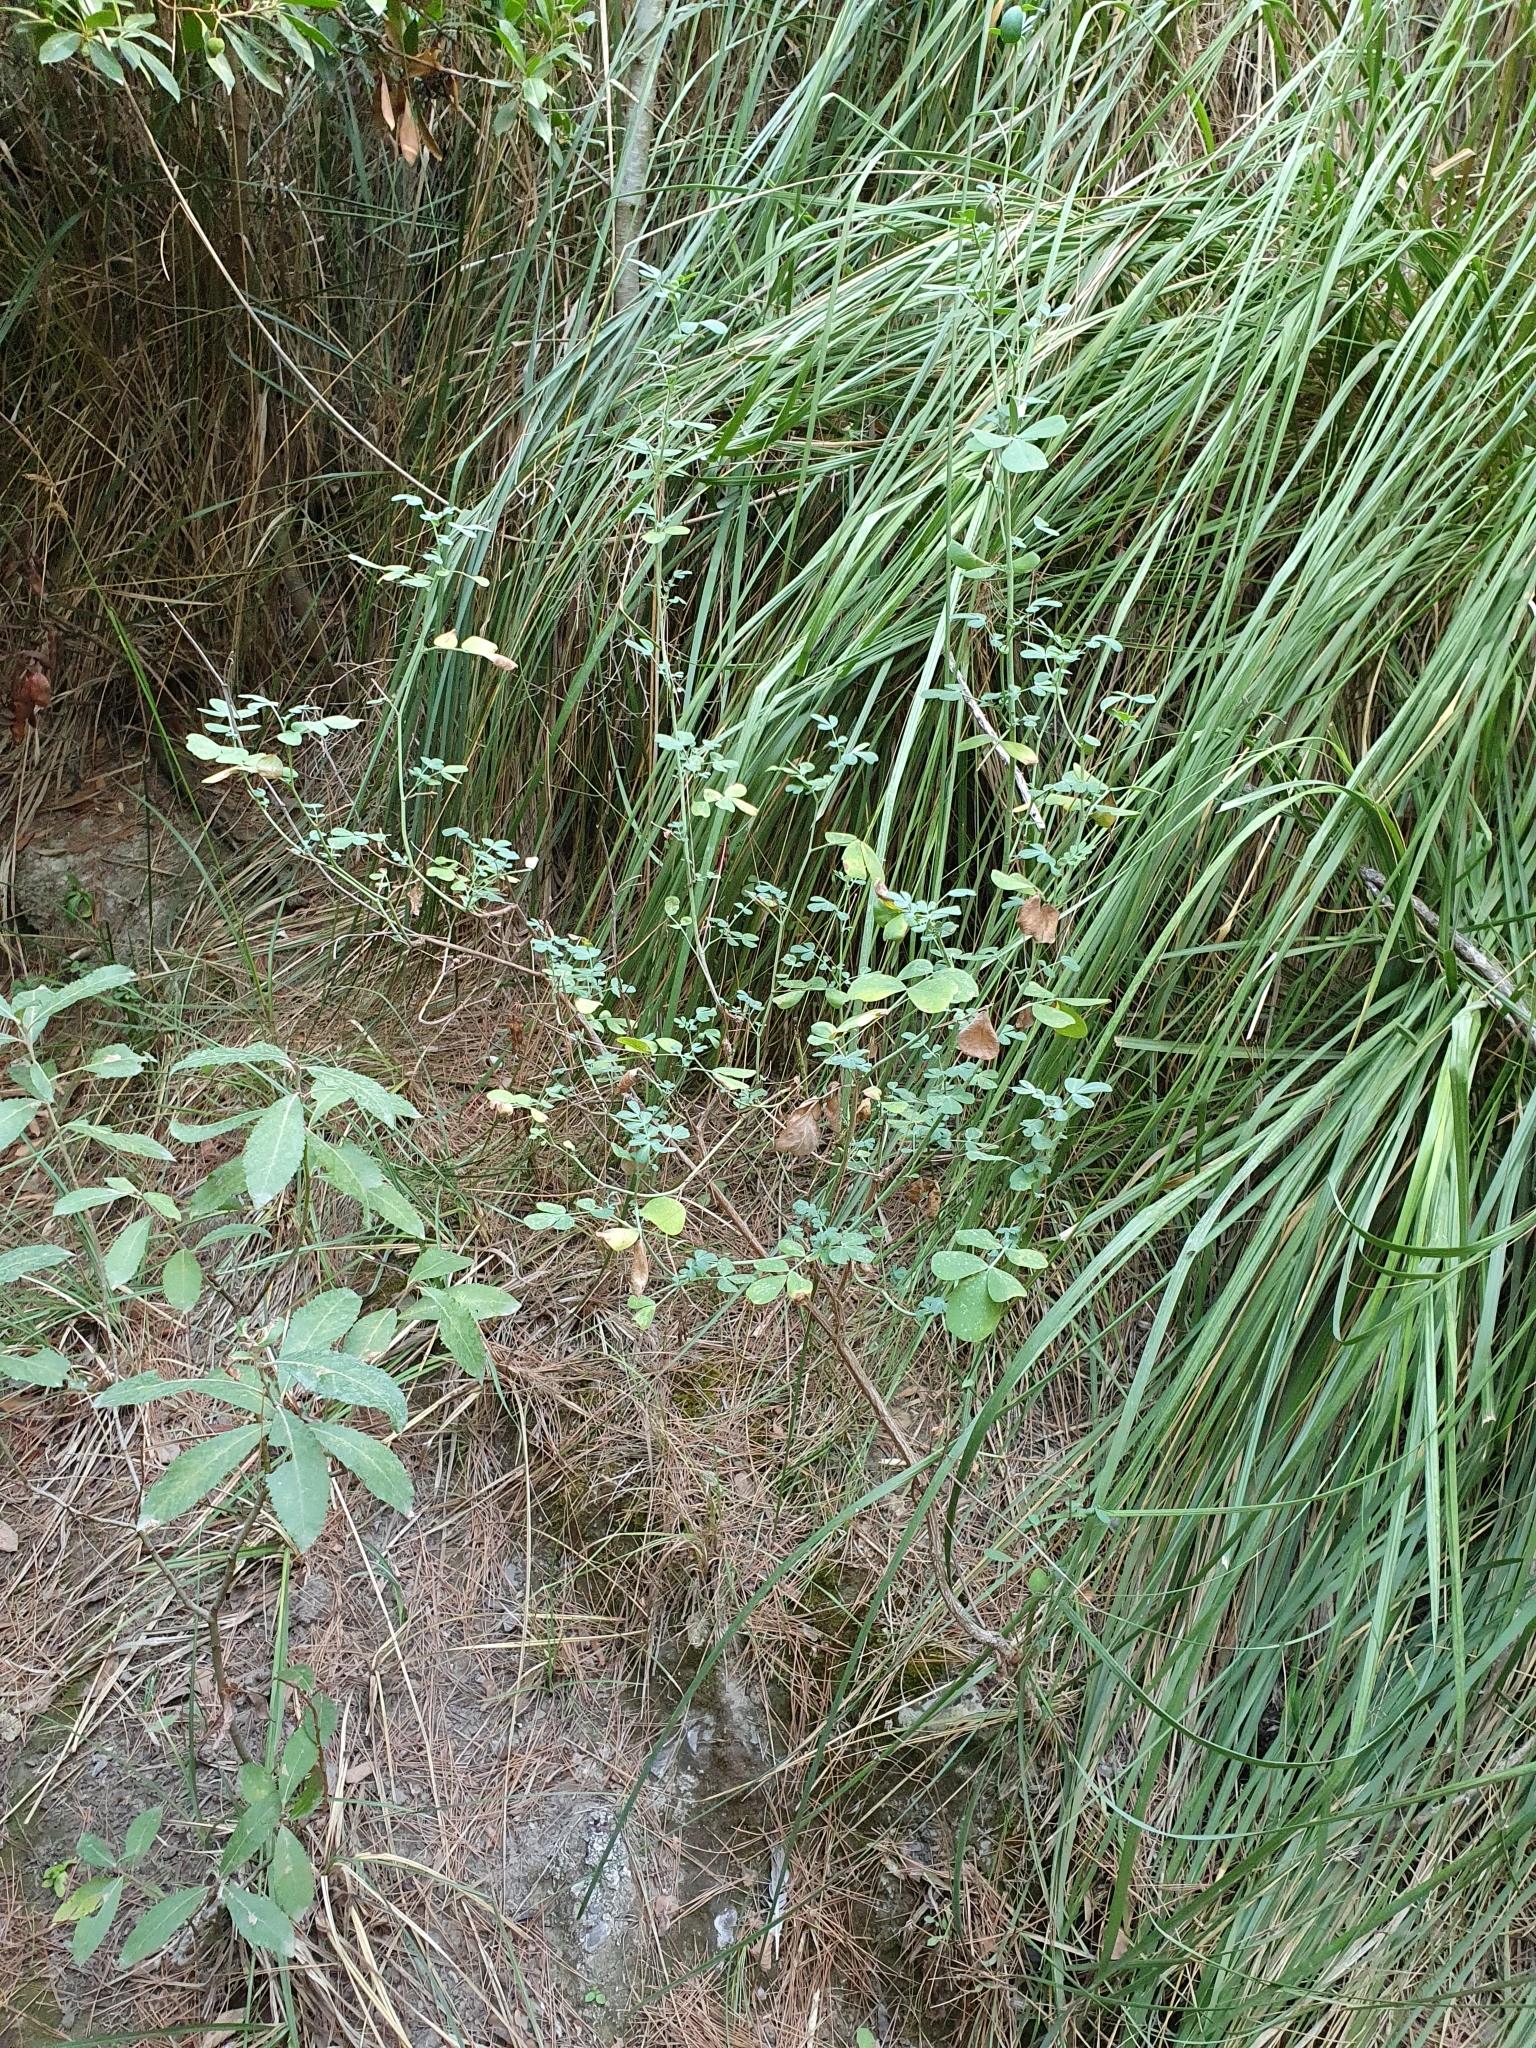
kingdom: Plantae
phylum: Tracheophyta
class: Magnoliopsida
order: Fabales
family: Fabaceae
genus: Coronilla
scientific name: Coronilla valentina
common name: Shrubby scorpion-vetch
